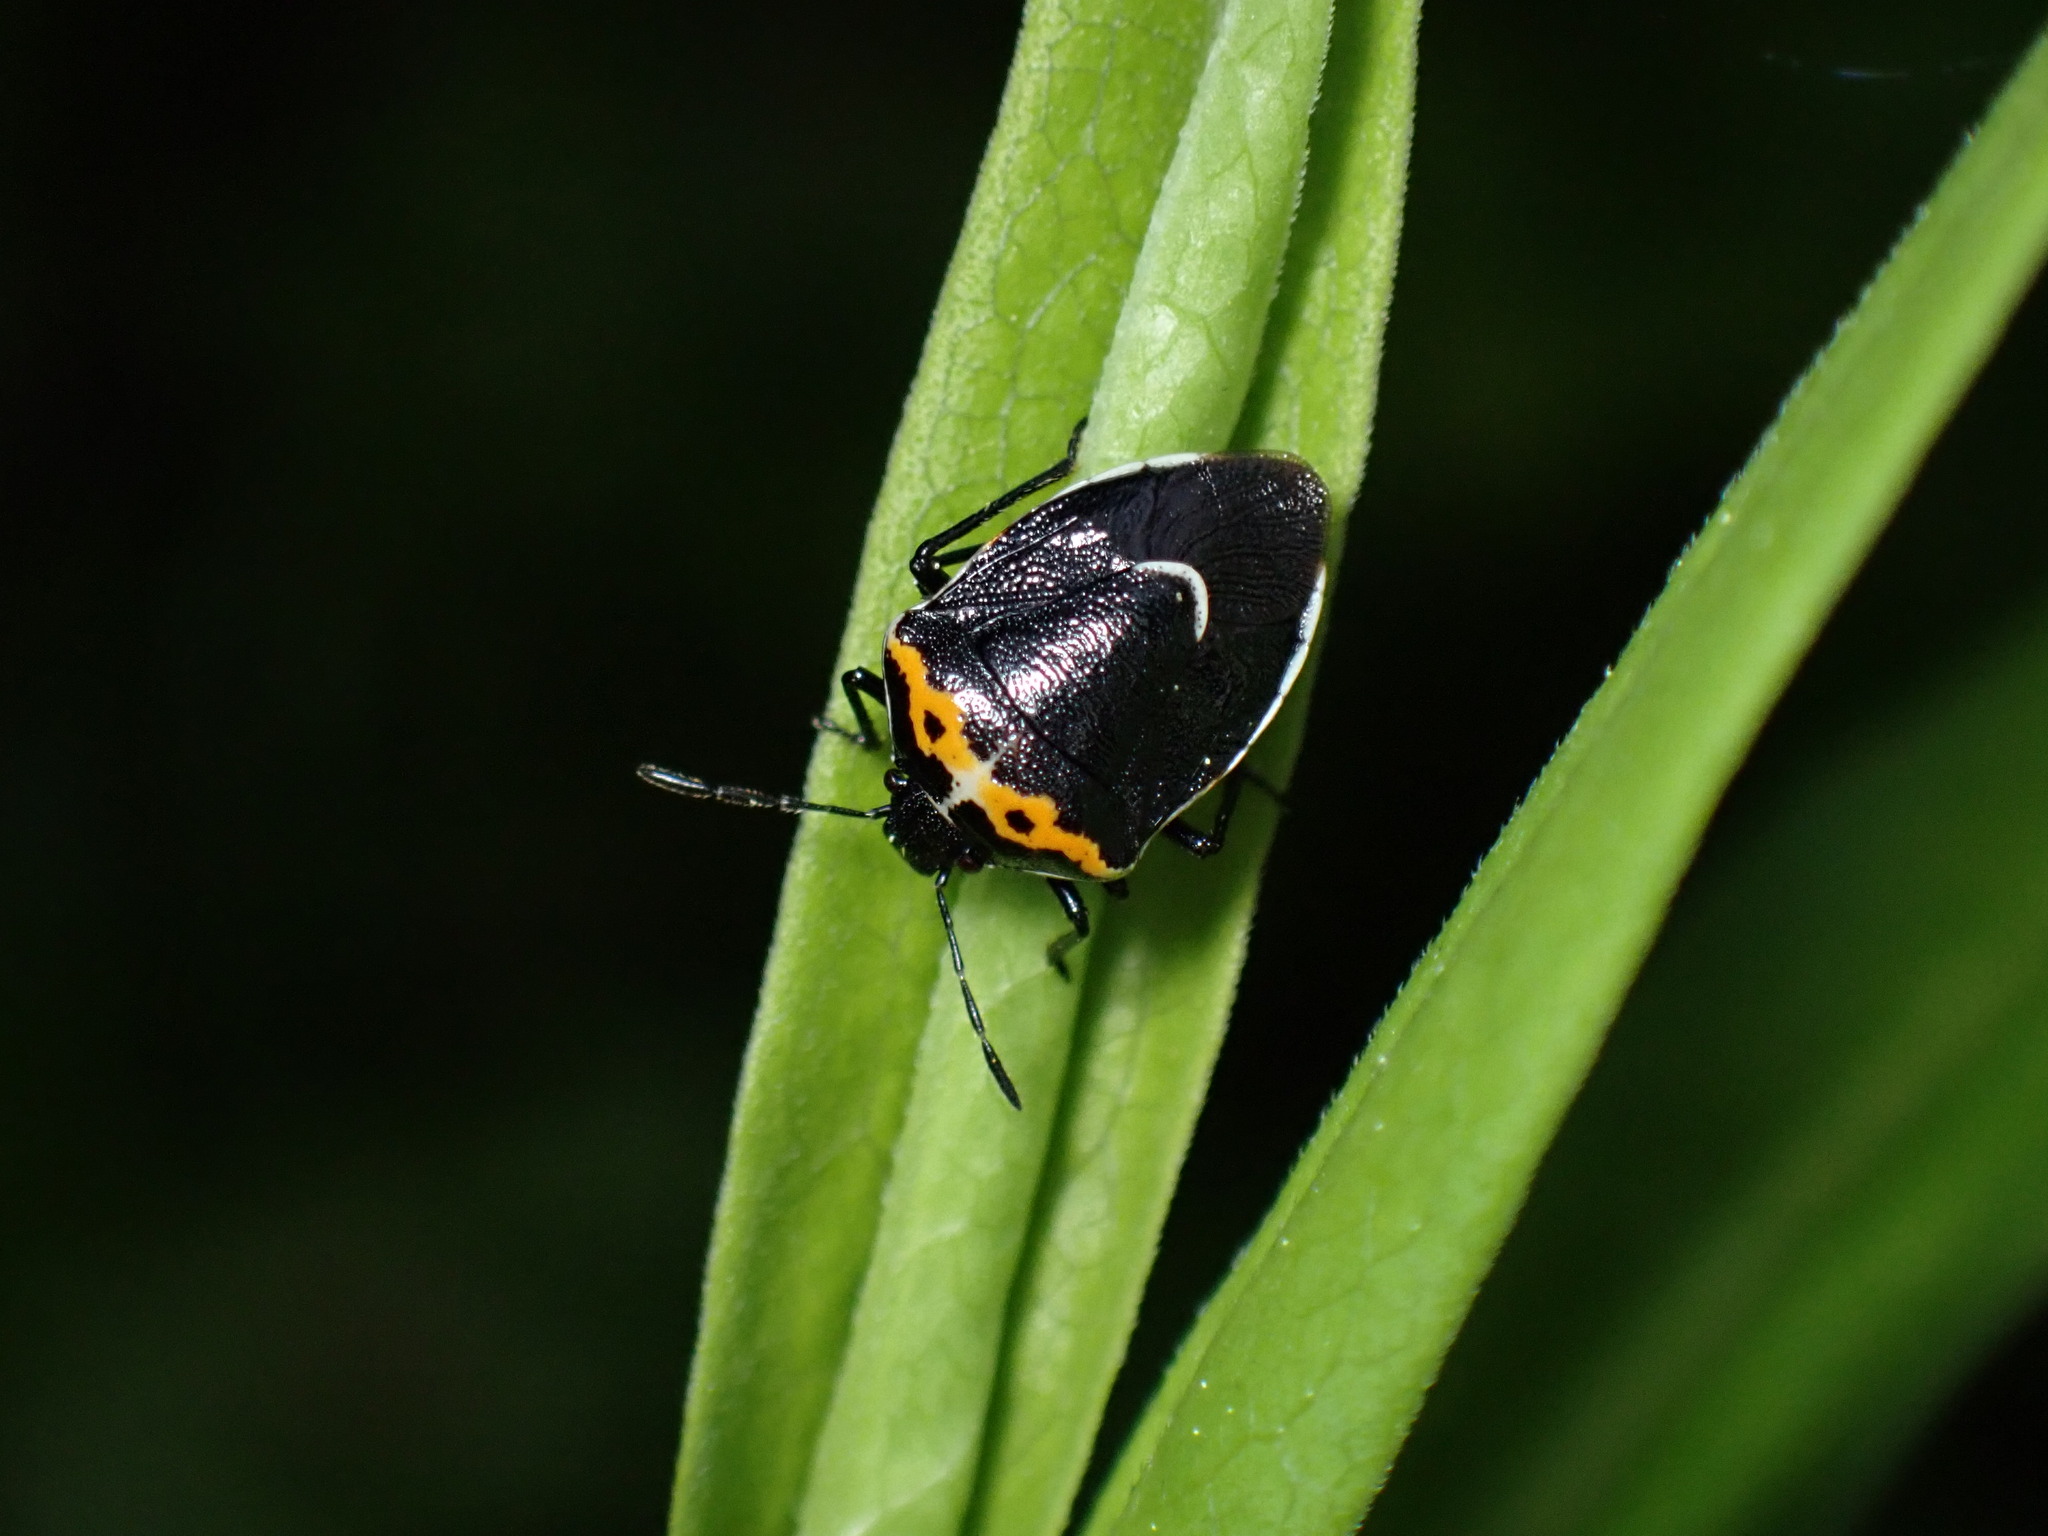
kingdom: Animalia
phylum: Arthropoda
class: Insecta
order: Hemiptera
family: Pentatomidae
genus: Cosmopepla
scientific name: Cosmopepla conspicillaris
